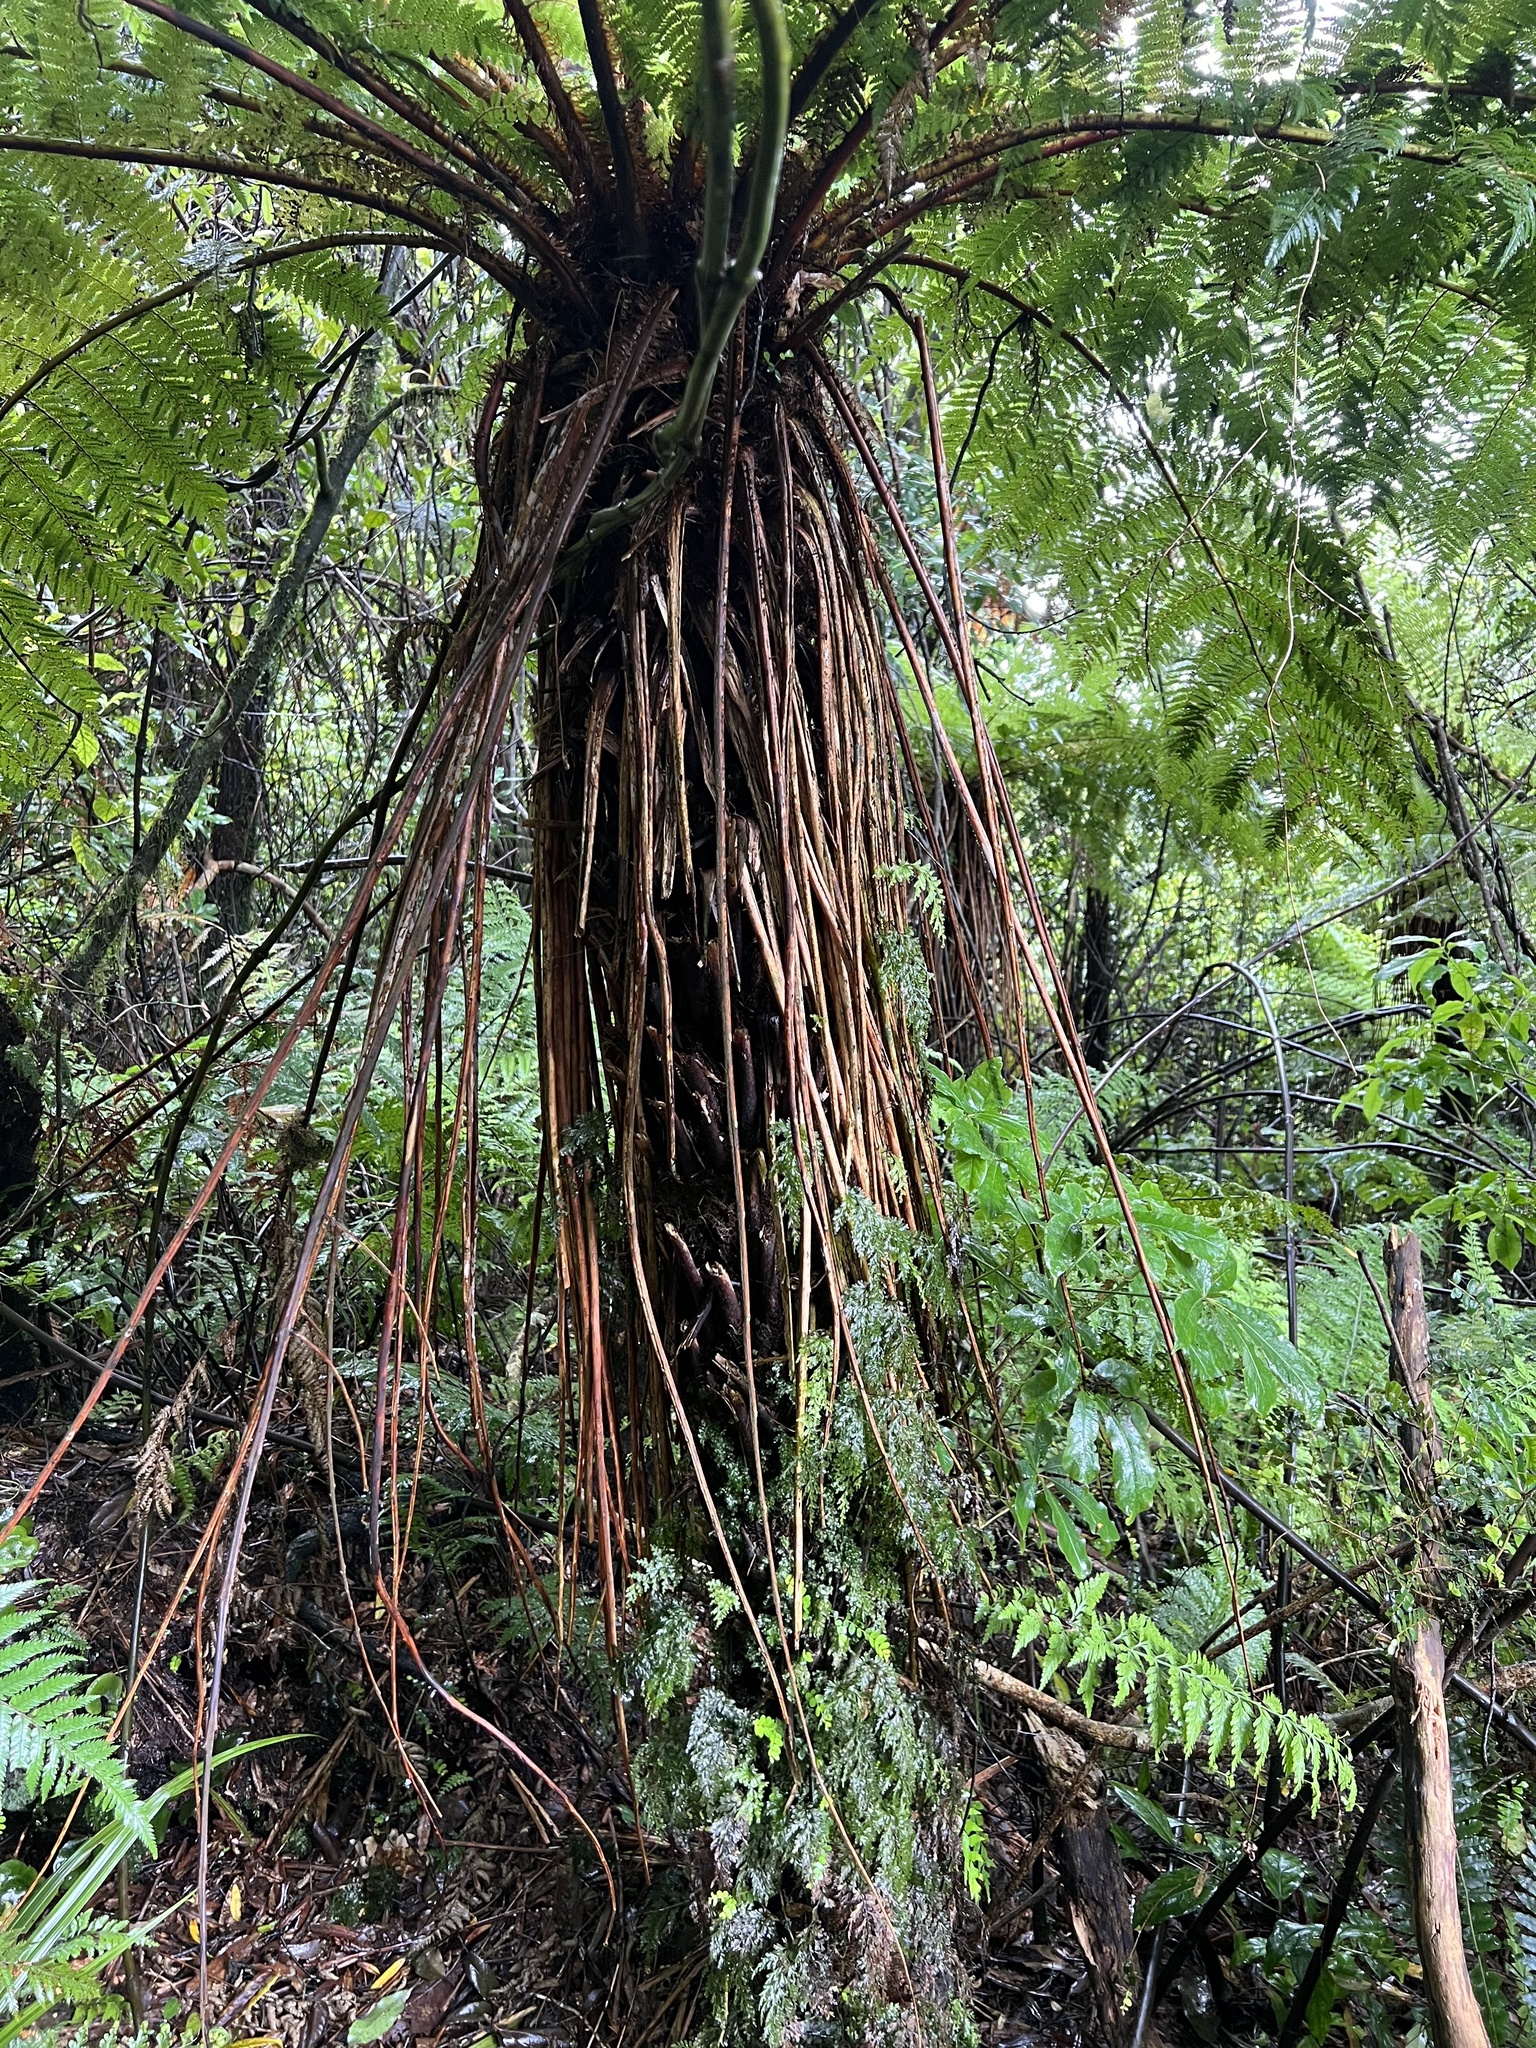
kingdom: Plantae
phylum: Tracheophyta
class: Polypodiopsida
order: Cyatheales
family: Cyatheaceae
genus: Alsophila
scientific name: Alsophila smithii
